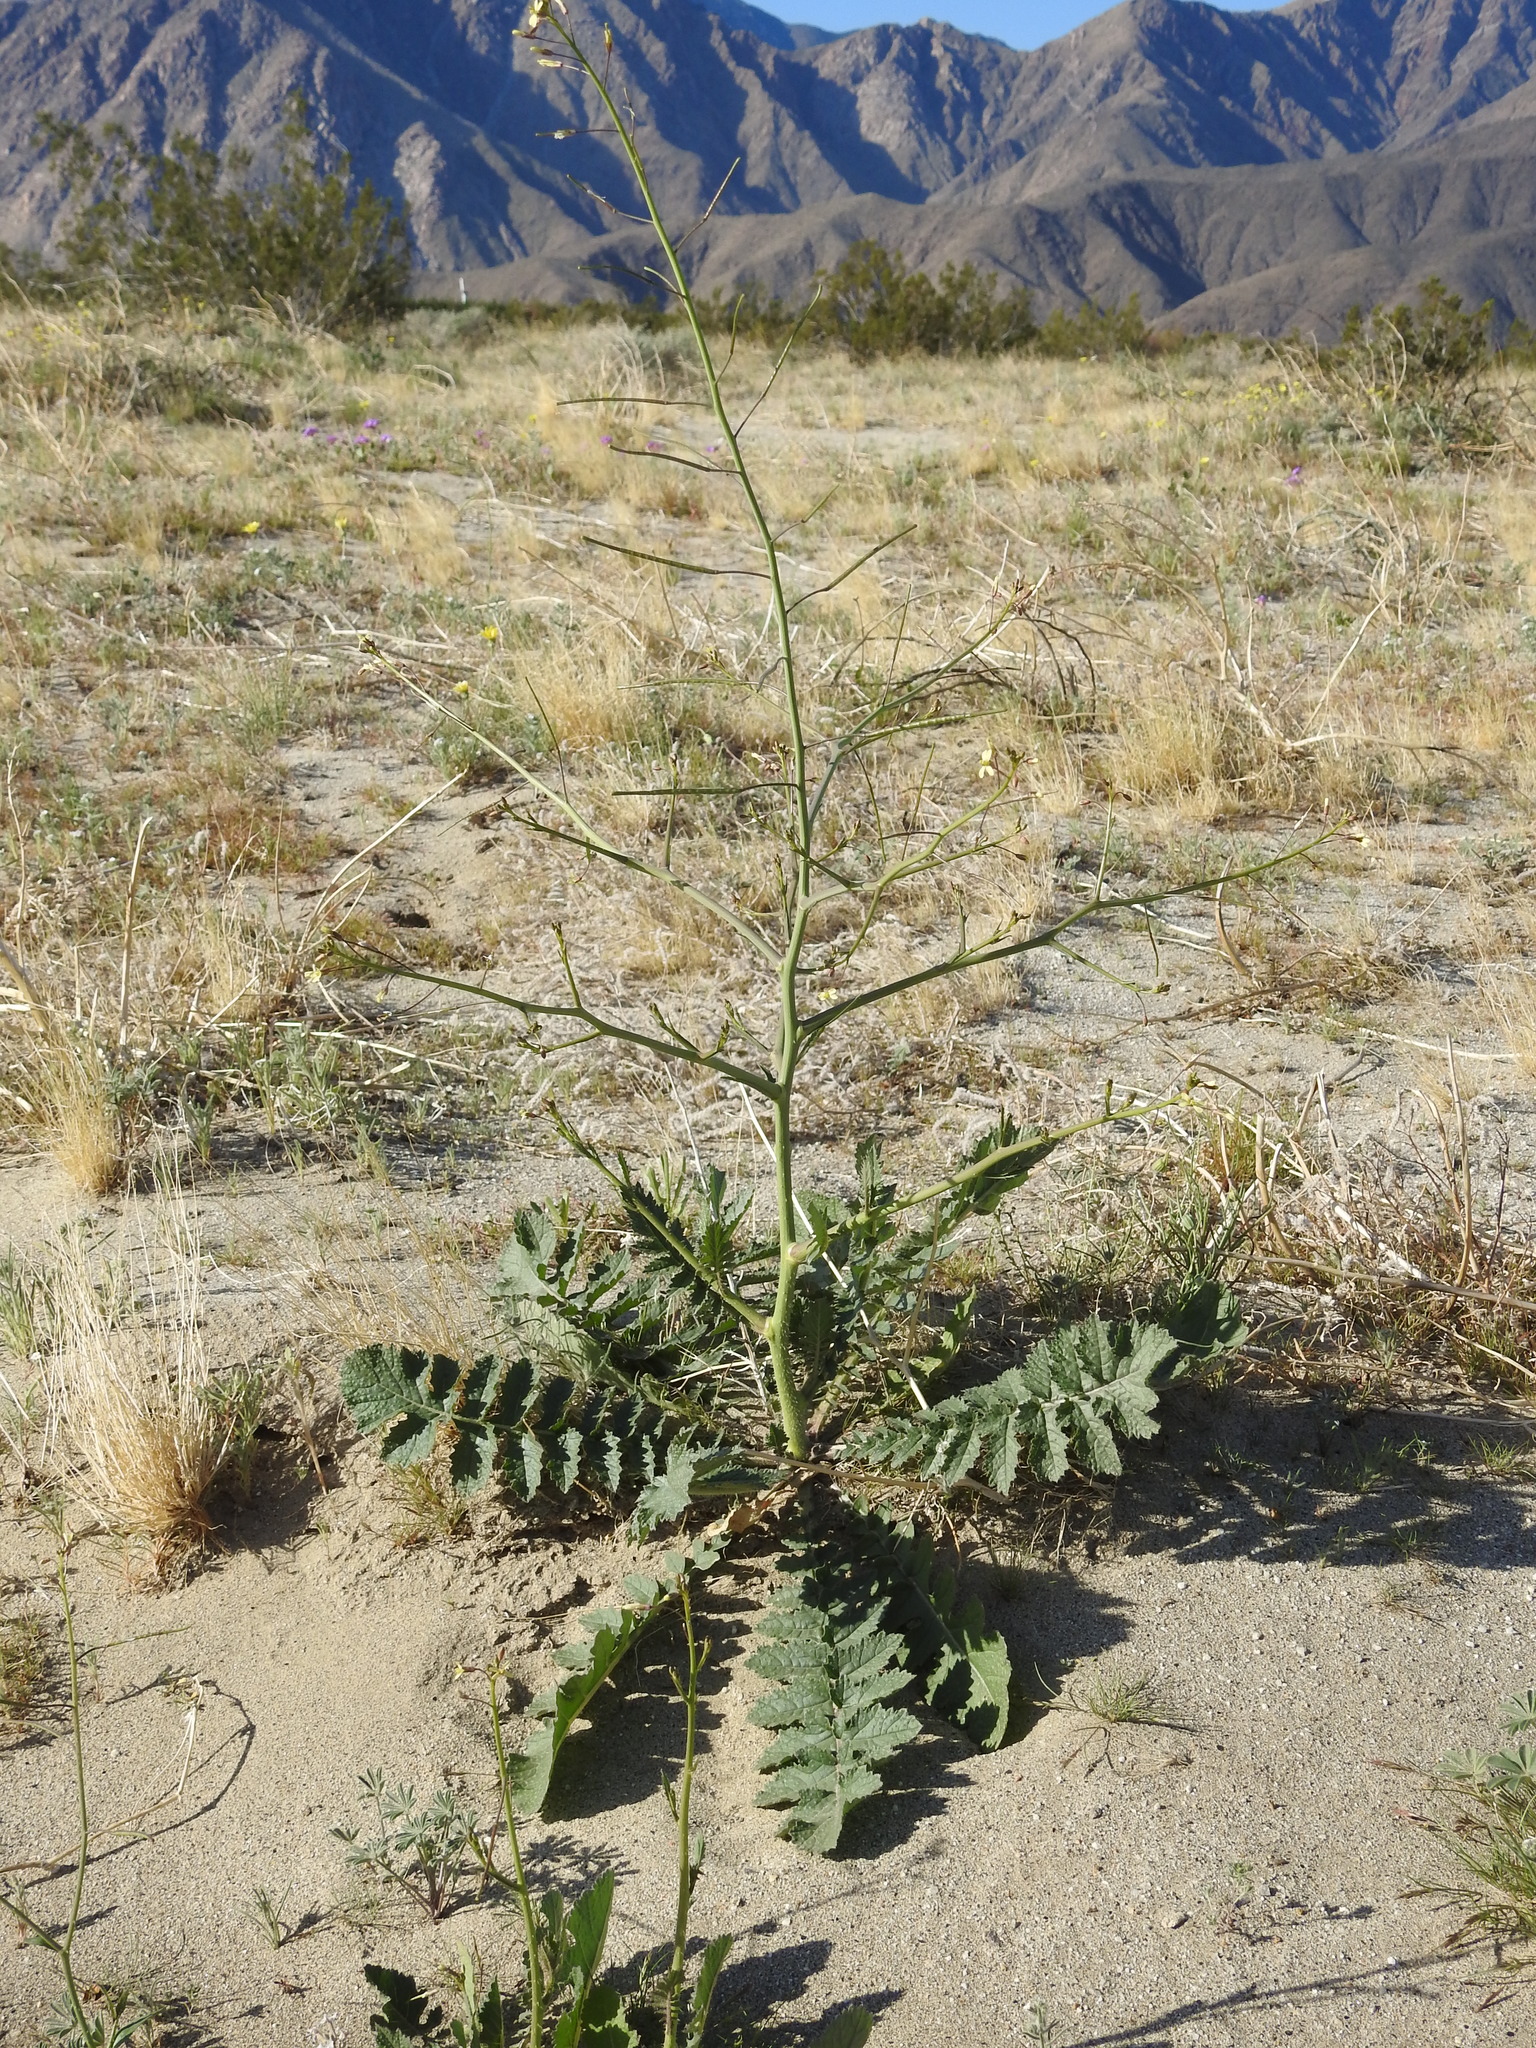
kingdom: Plantae
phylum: Tracheophyta
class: Magnoliopsida
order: Brassicales
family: Brassicaceae
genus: Brassica
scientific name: Brassica tournefortii
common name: Pale cabbage
